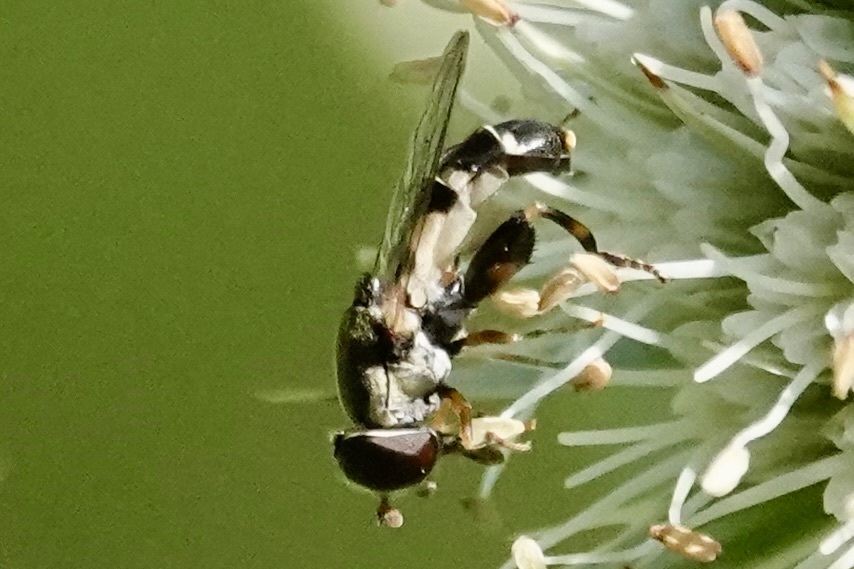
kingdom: Animalia
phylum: Arthropoda
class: Insecta
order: Diptera
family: Syrphidae
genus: Syritta
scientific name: Syritta pipiens
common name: Hover fly
